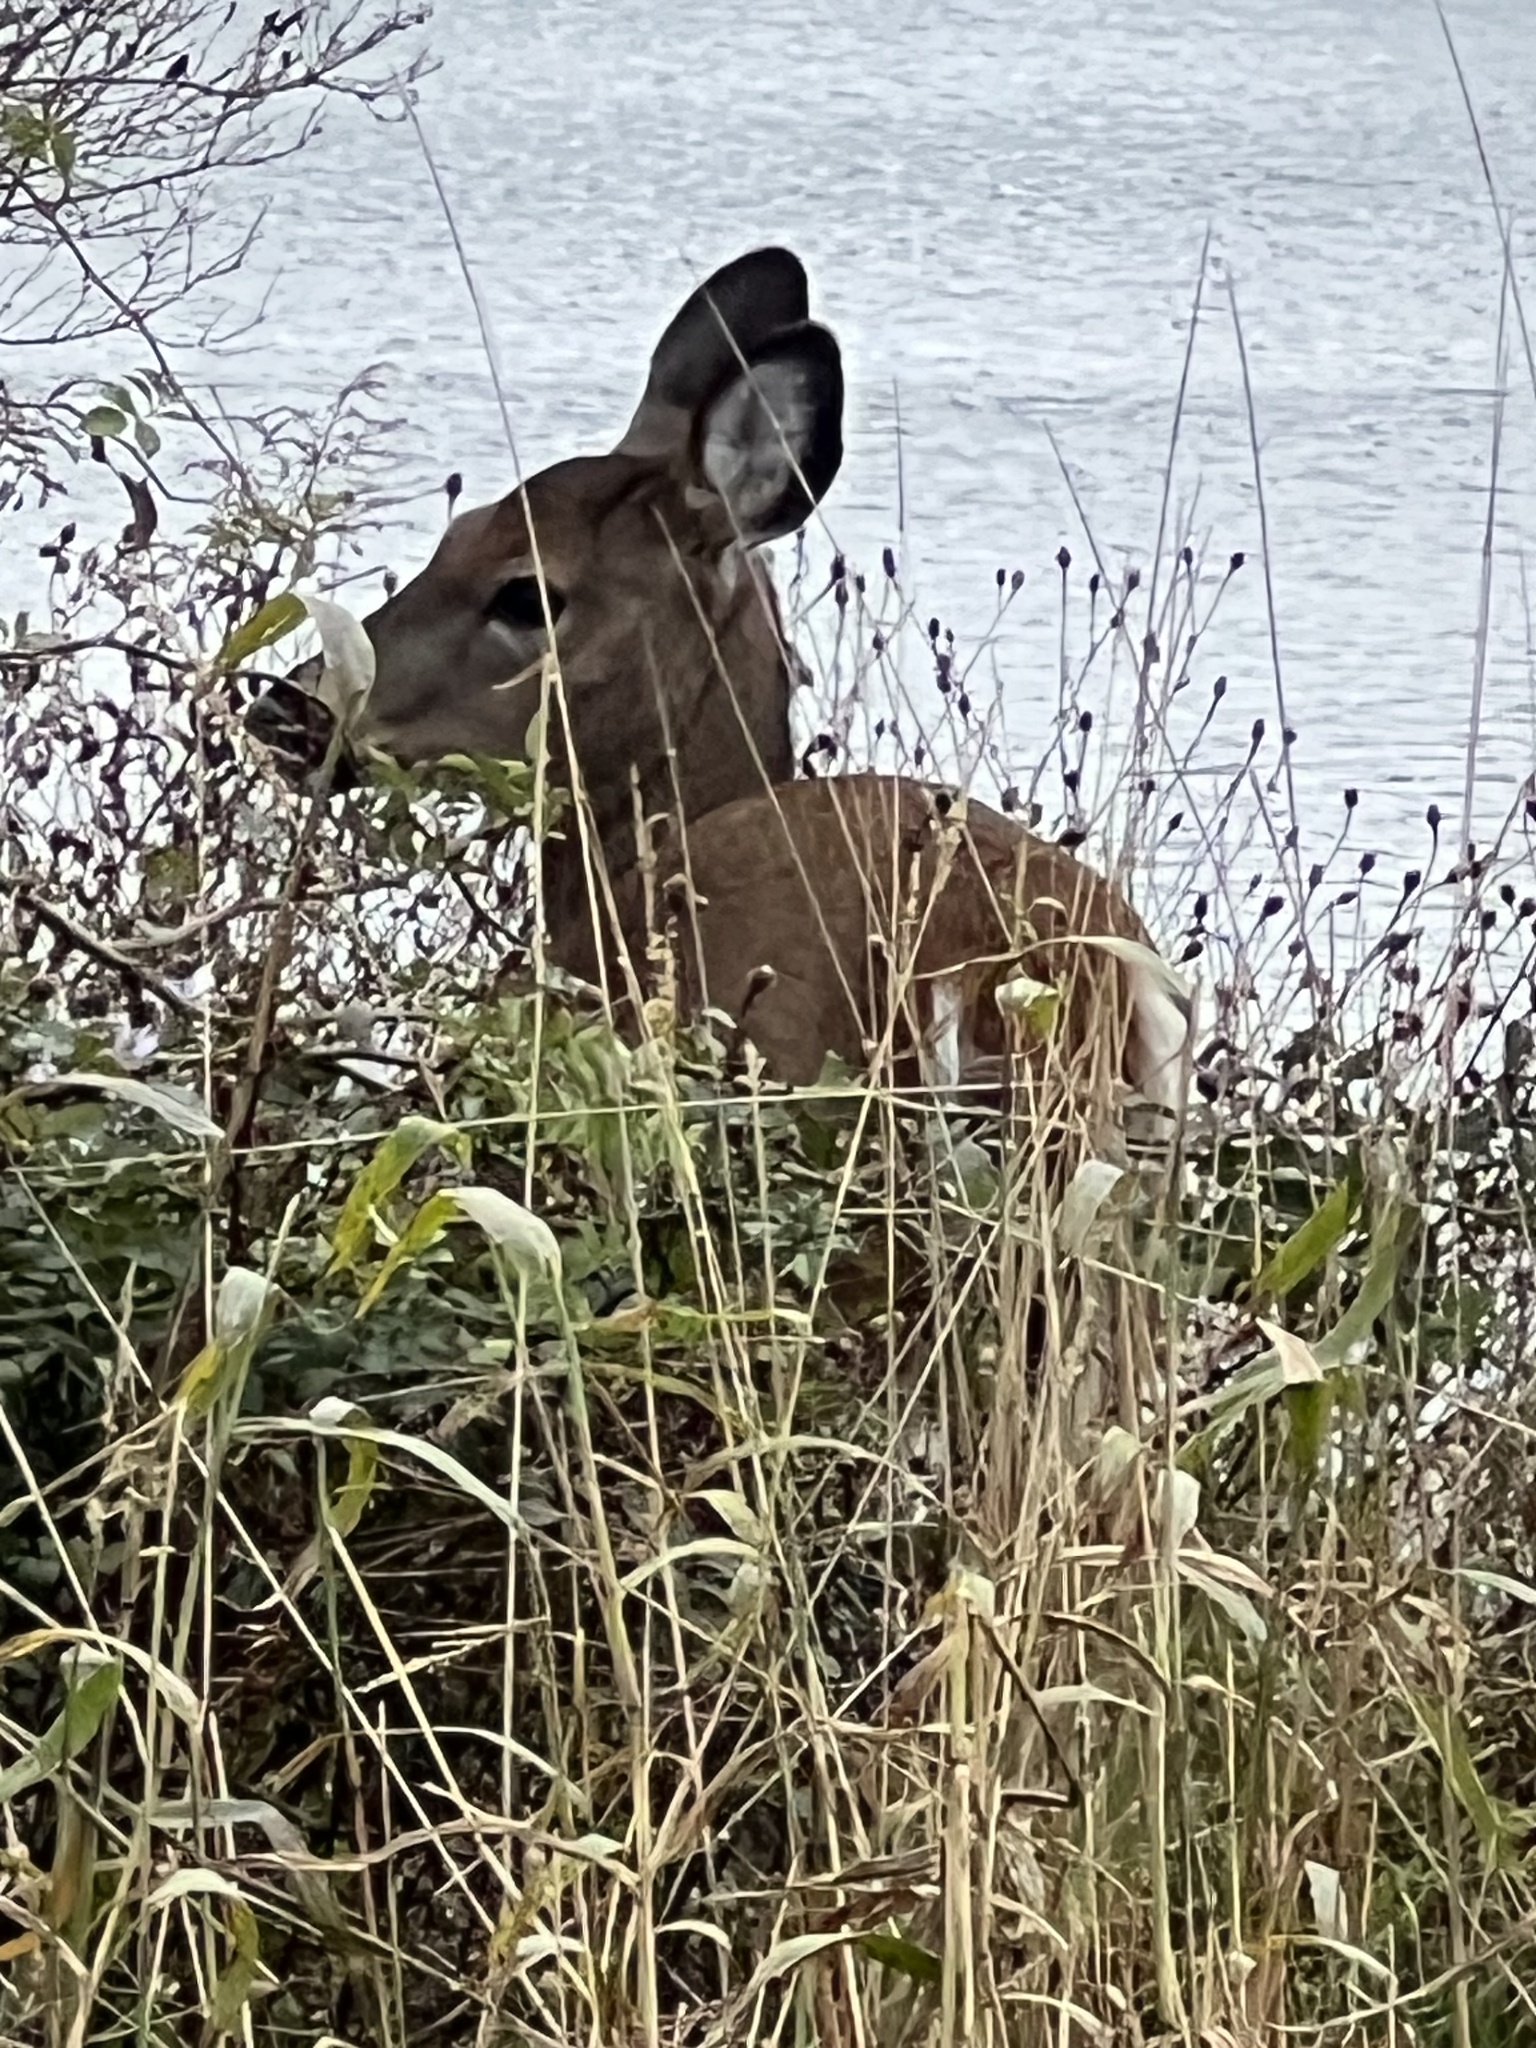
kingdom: Animalia
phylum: Chordata
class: Mammalia
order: Artiodactyla
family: Cervidae
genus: Odocoileus
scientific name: Odocoileus virginianus
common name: White-tailed deer
